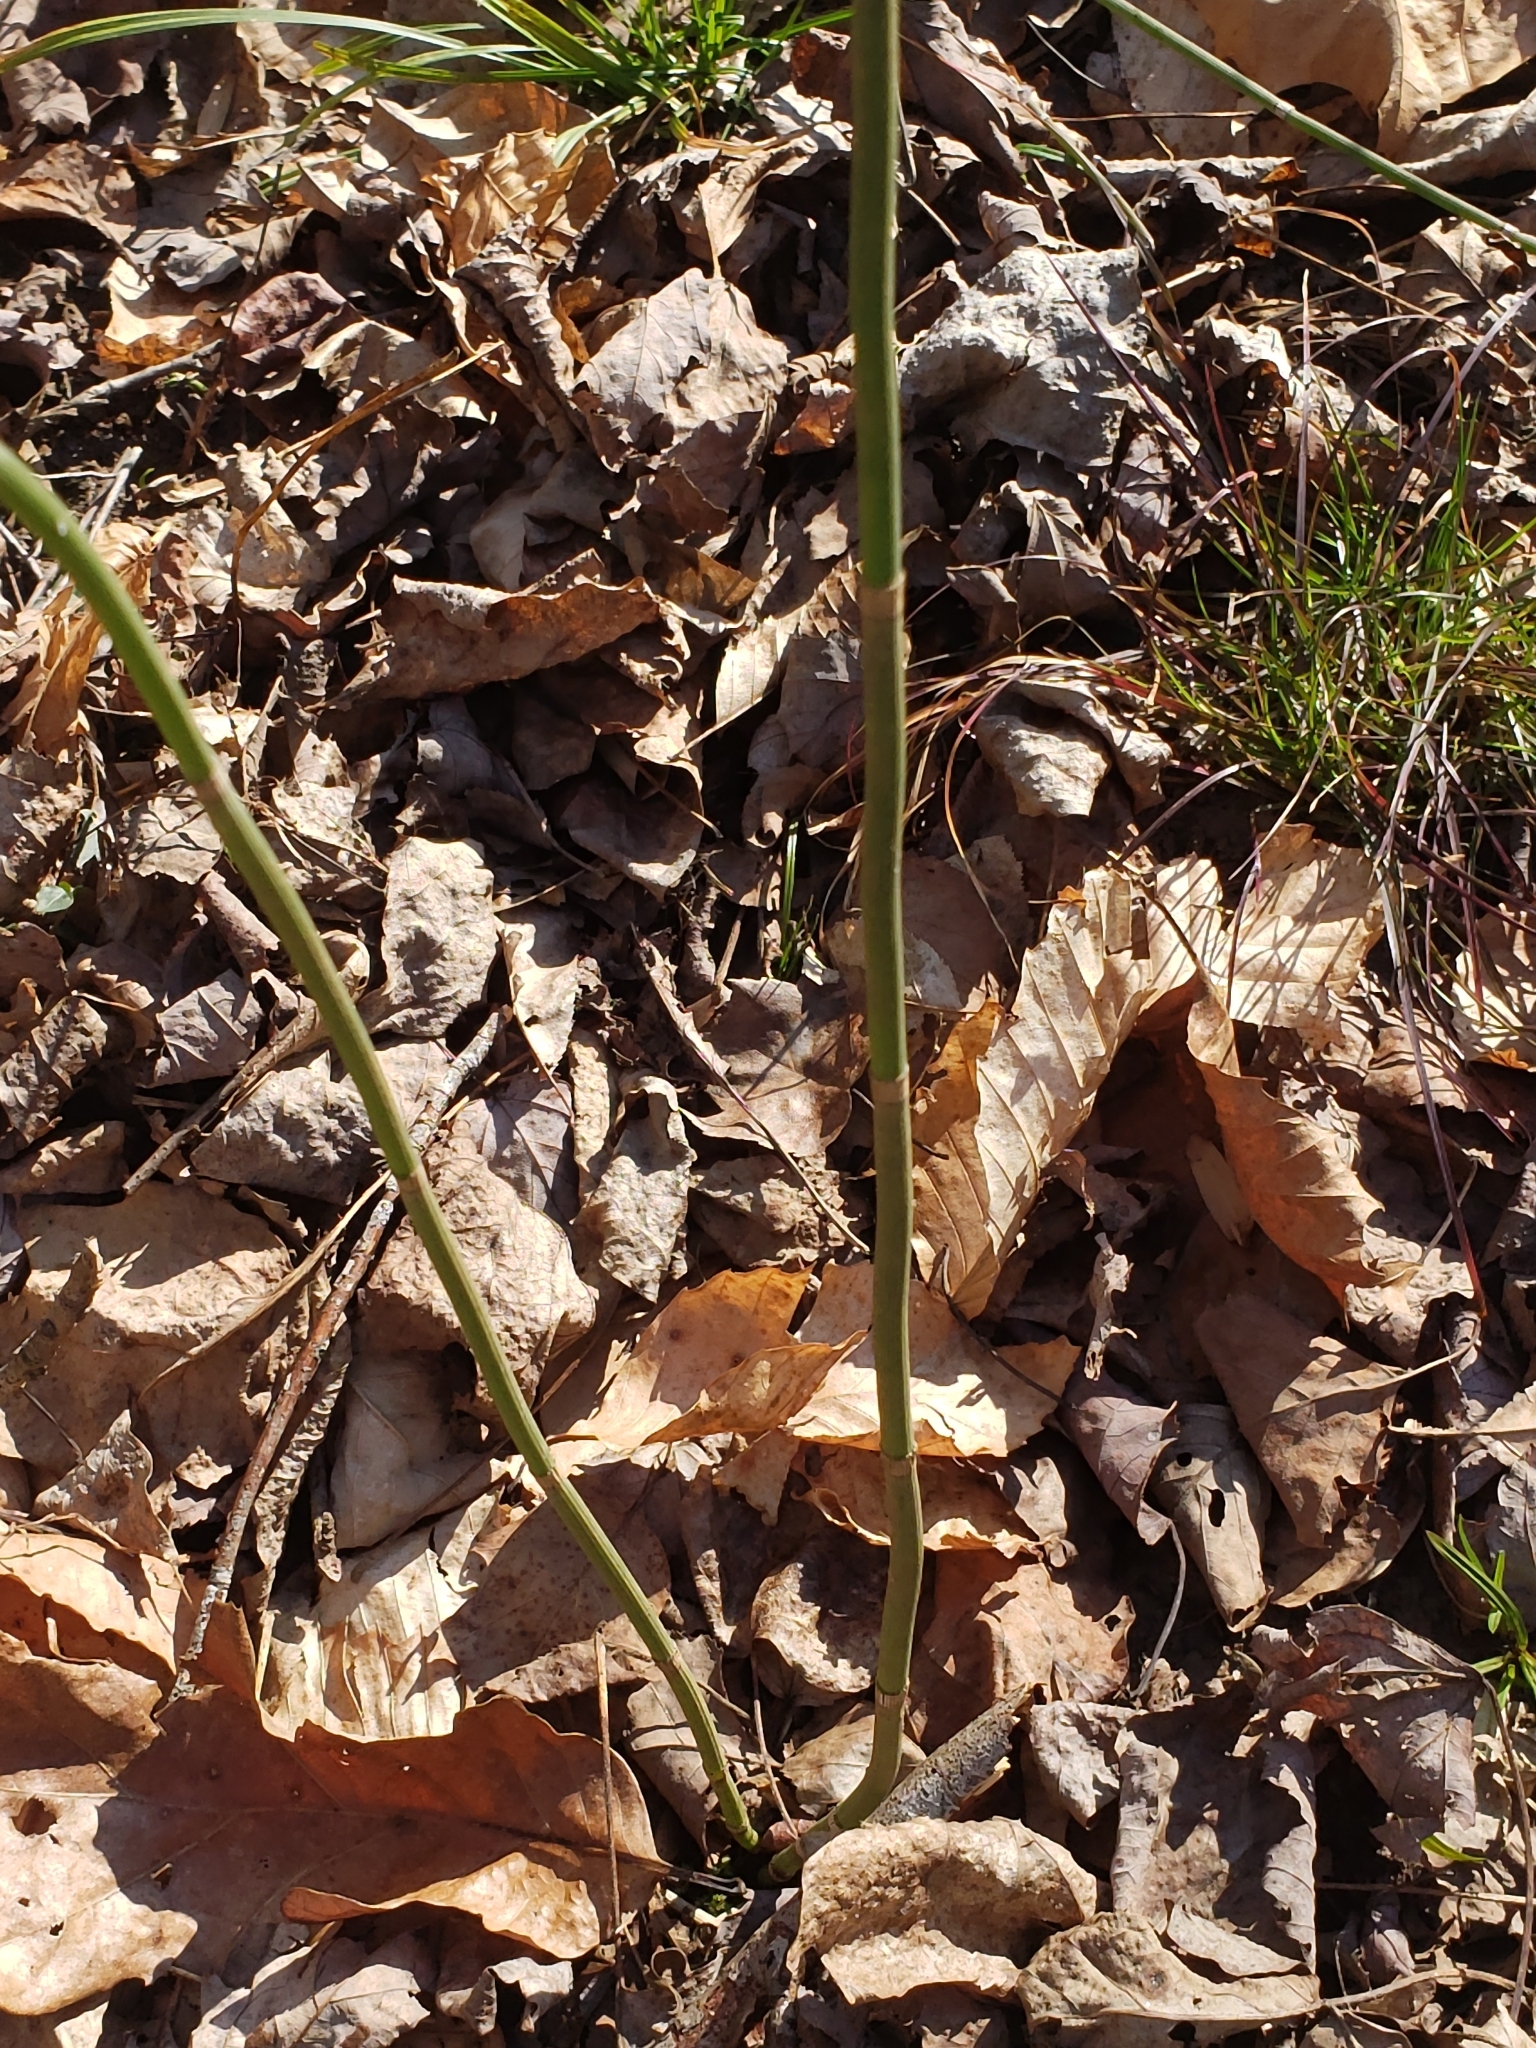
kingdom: Plantae
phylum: Tracheophyta
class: Polypodiopsida
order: Equisetales
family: Equisetaceae
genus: Equisetum
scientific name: Equisetum praealtum
